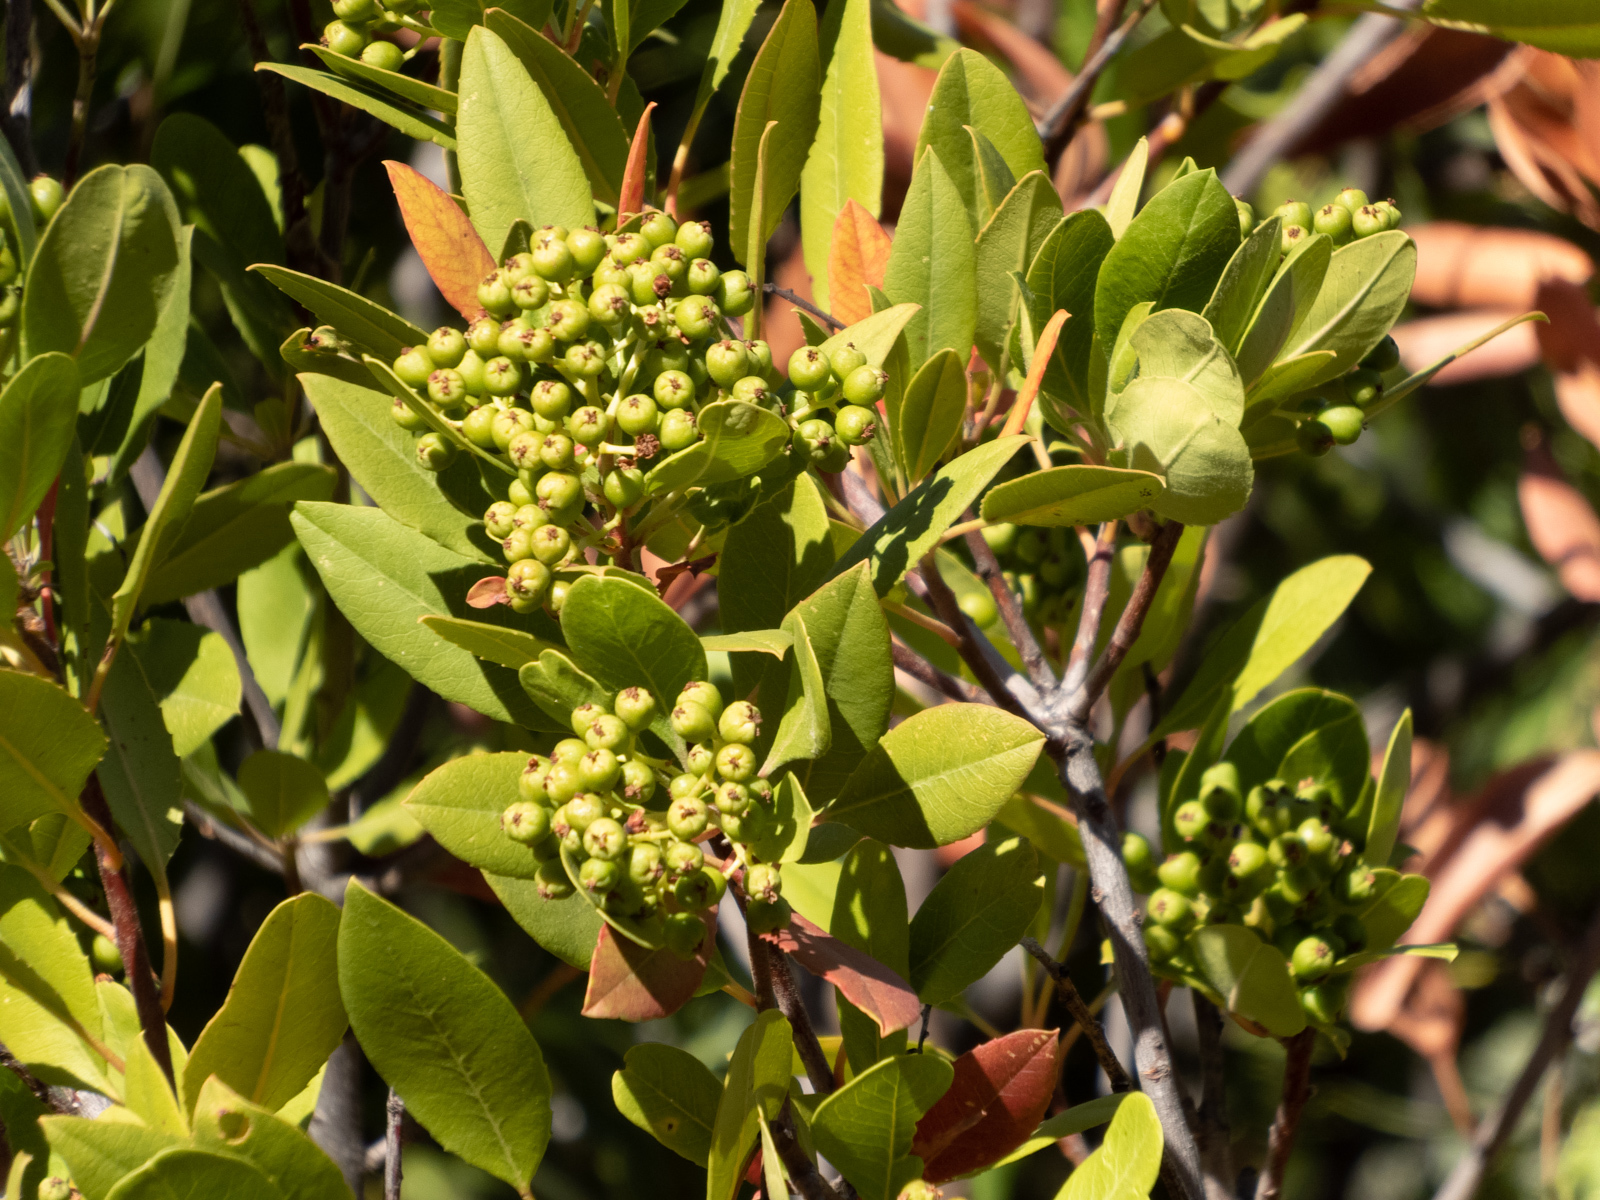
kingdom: Plantae
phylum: Tracheophyta
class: Magnoliopsida
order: Rosales
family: Rosaceae
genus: Heteromeles
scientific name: Heteromeles arbutifolia
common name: California-holly
